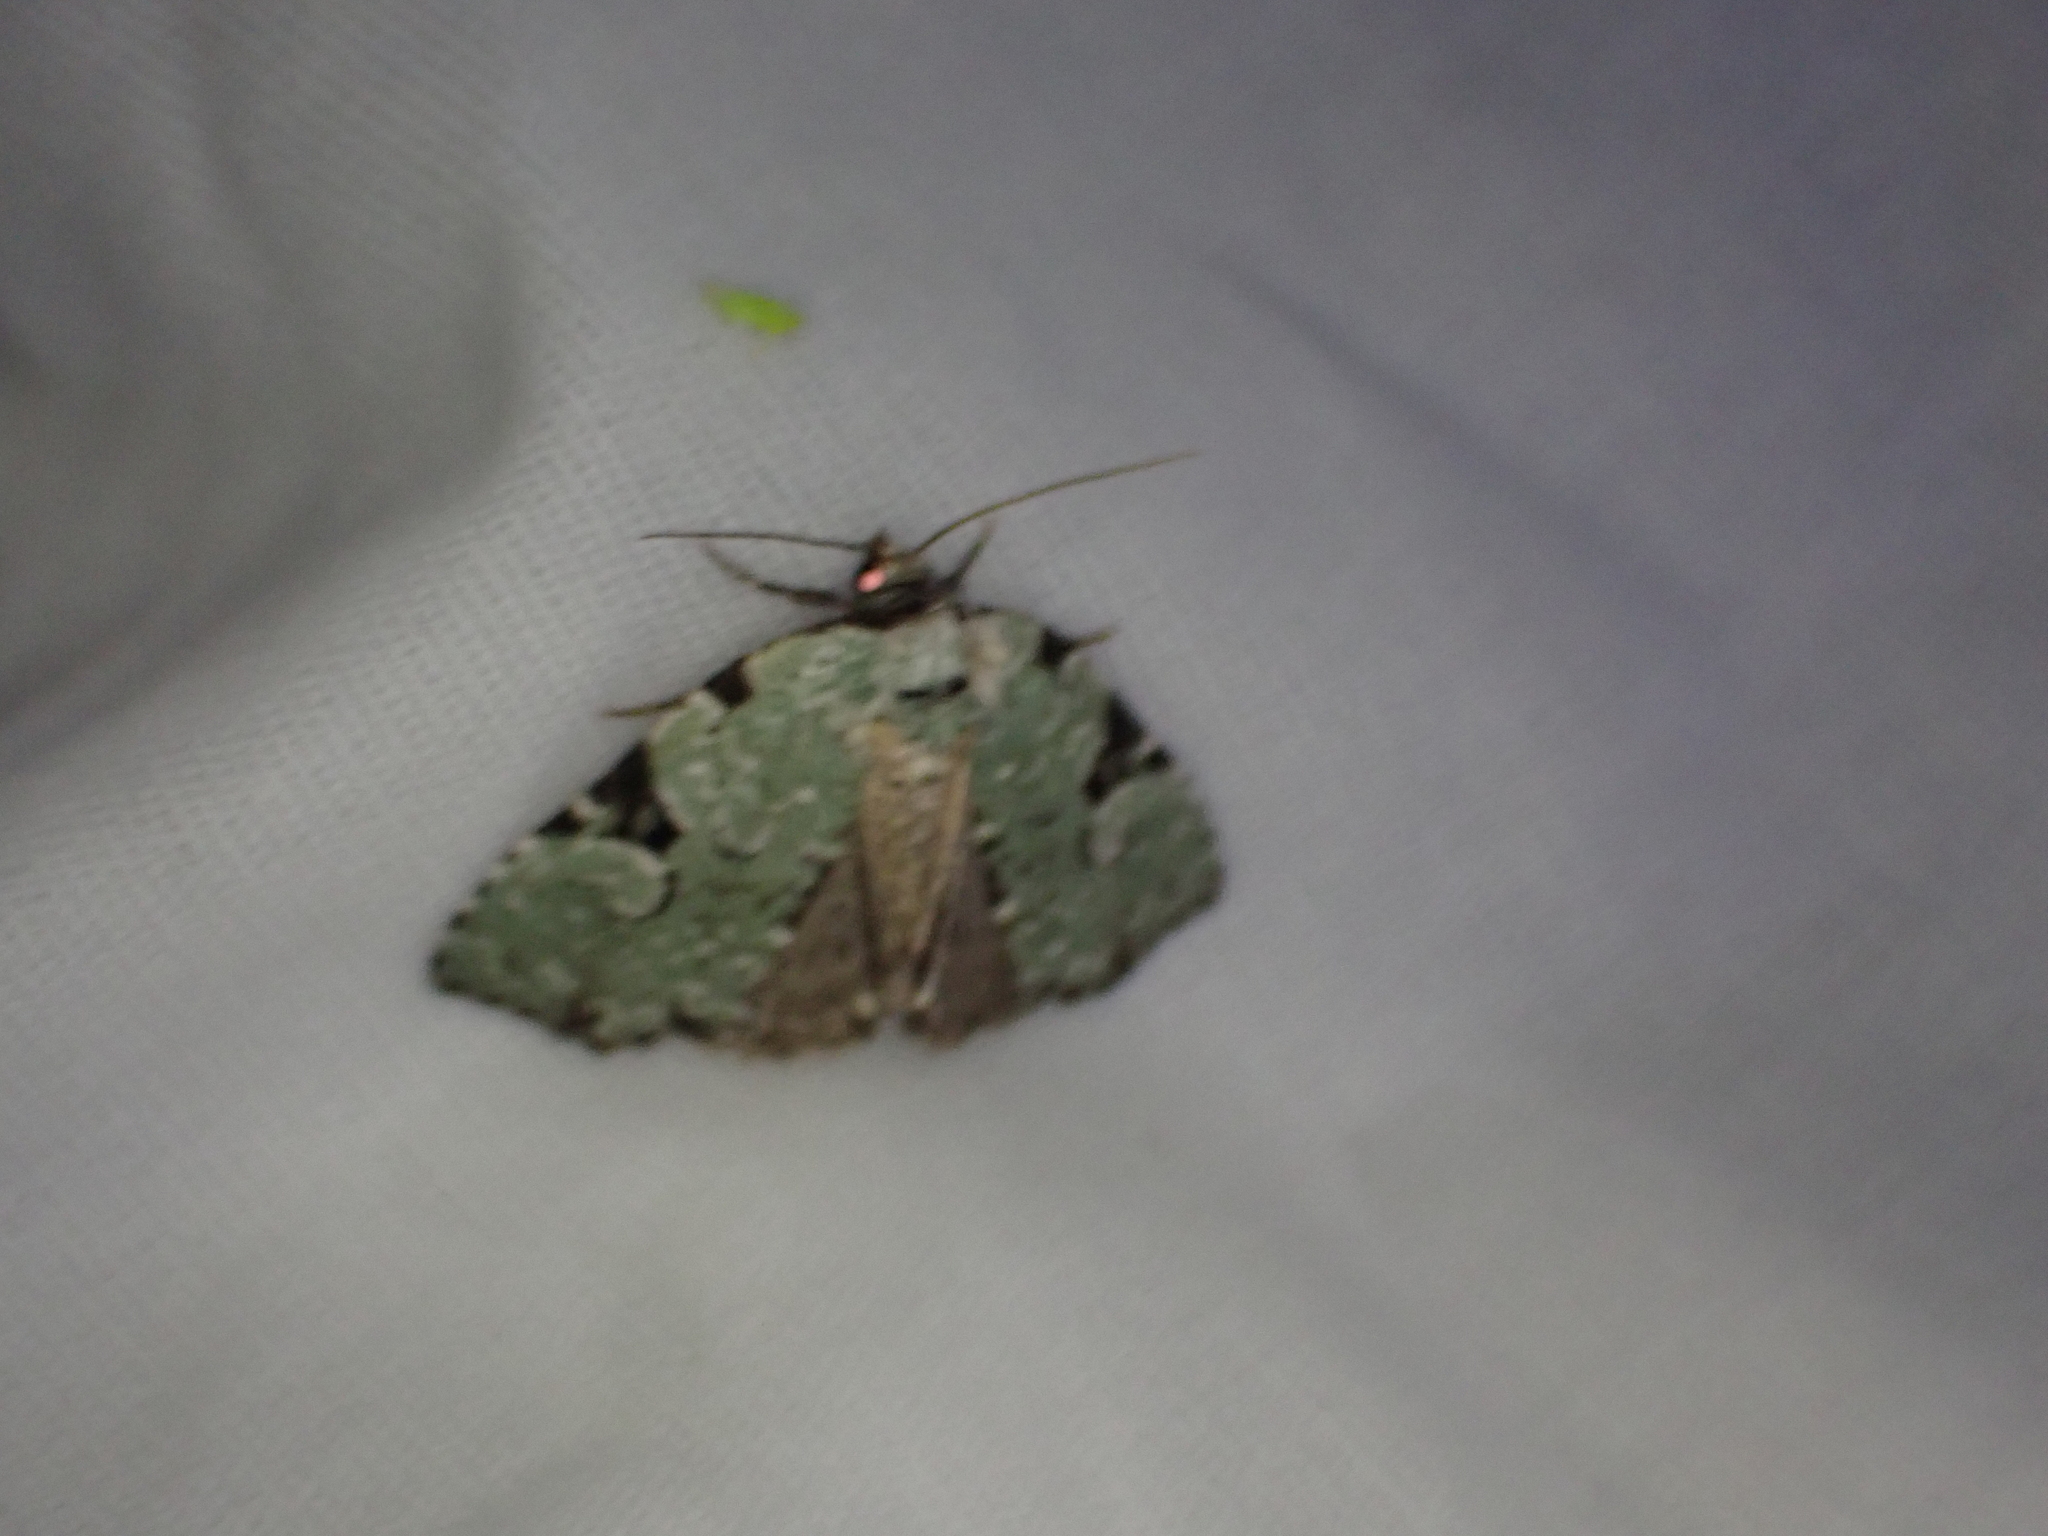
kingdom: Animalia
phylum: Arthropoda
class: Insecta
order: Lepidoptera
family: Noctuidae
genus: Leuconycta
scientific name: Leuconycta diphteroides
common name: Green leuconycta moth
